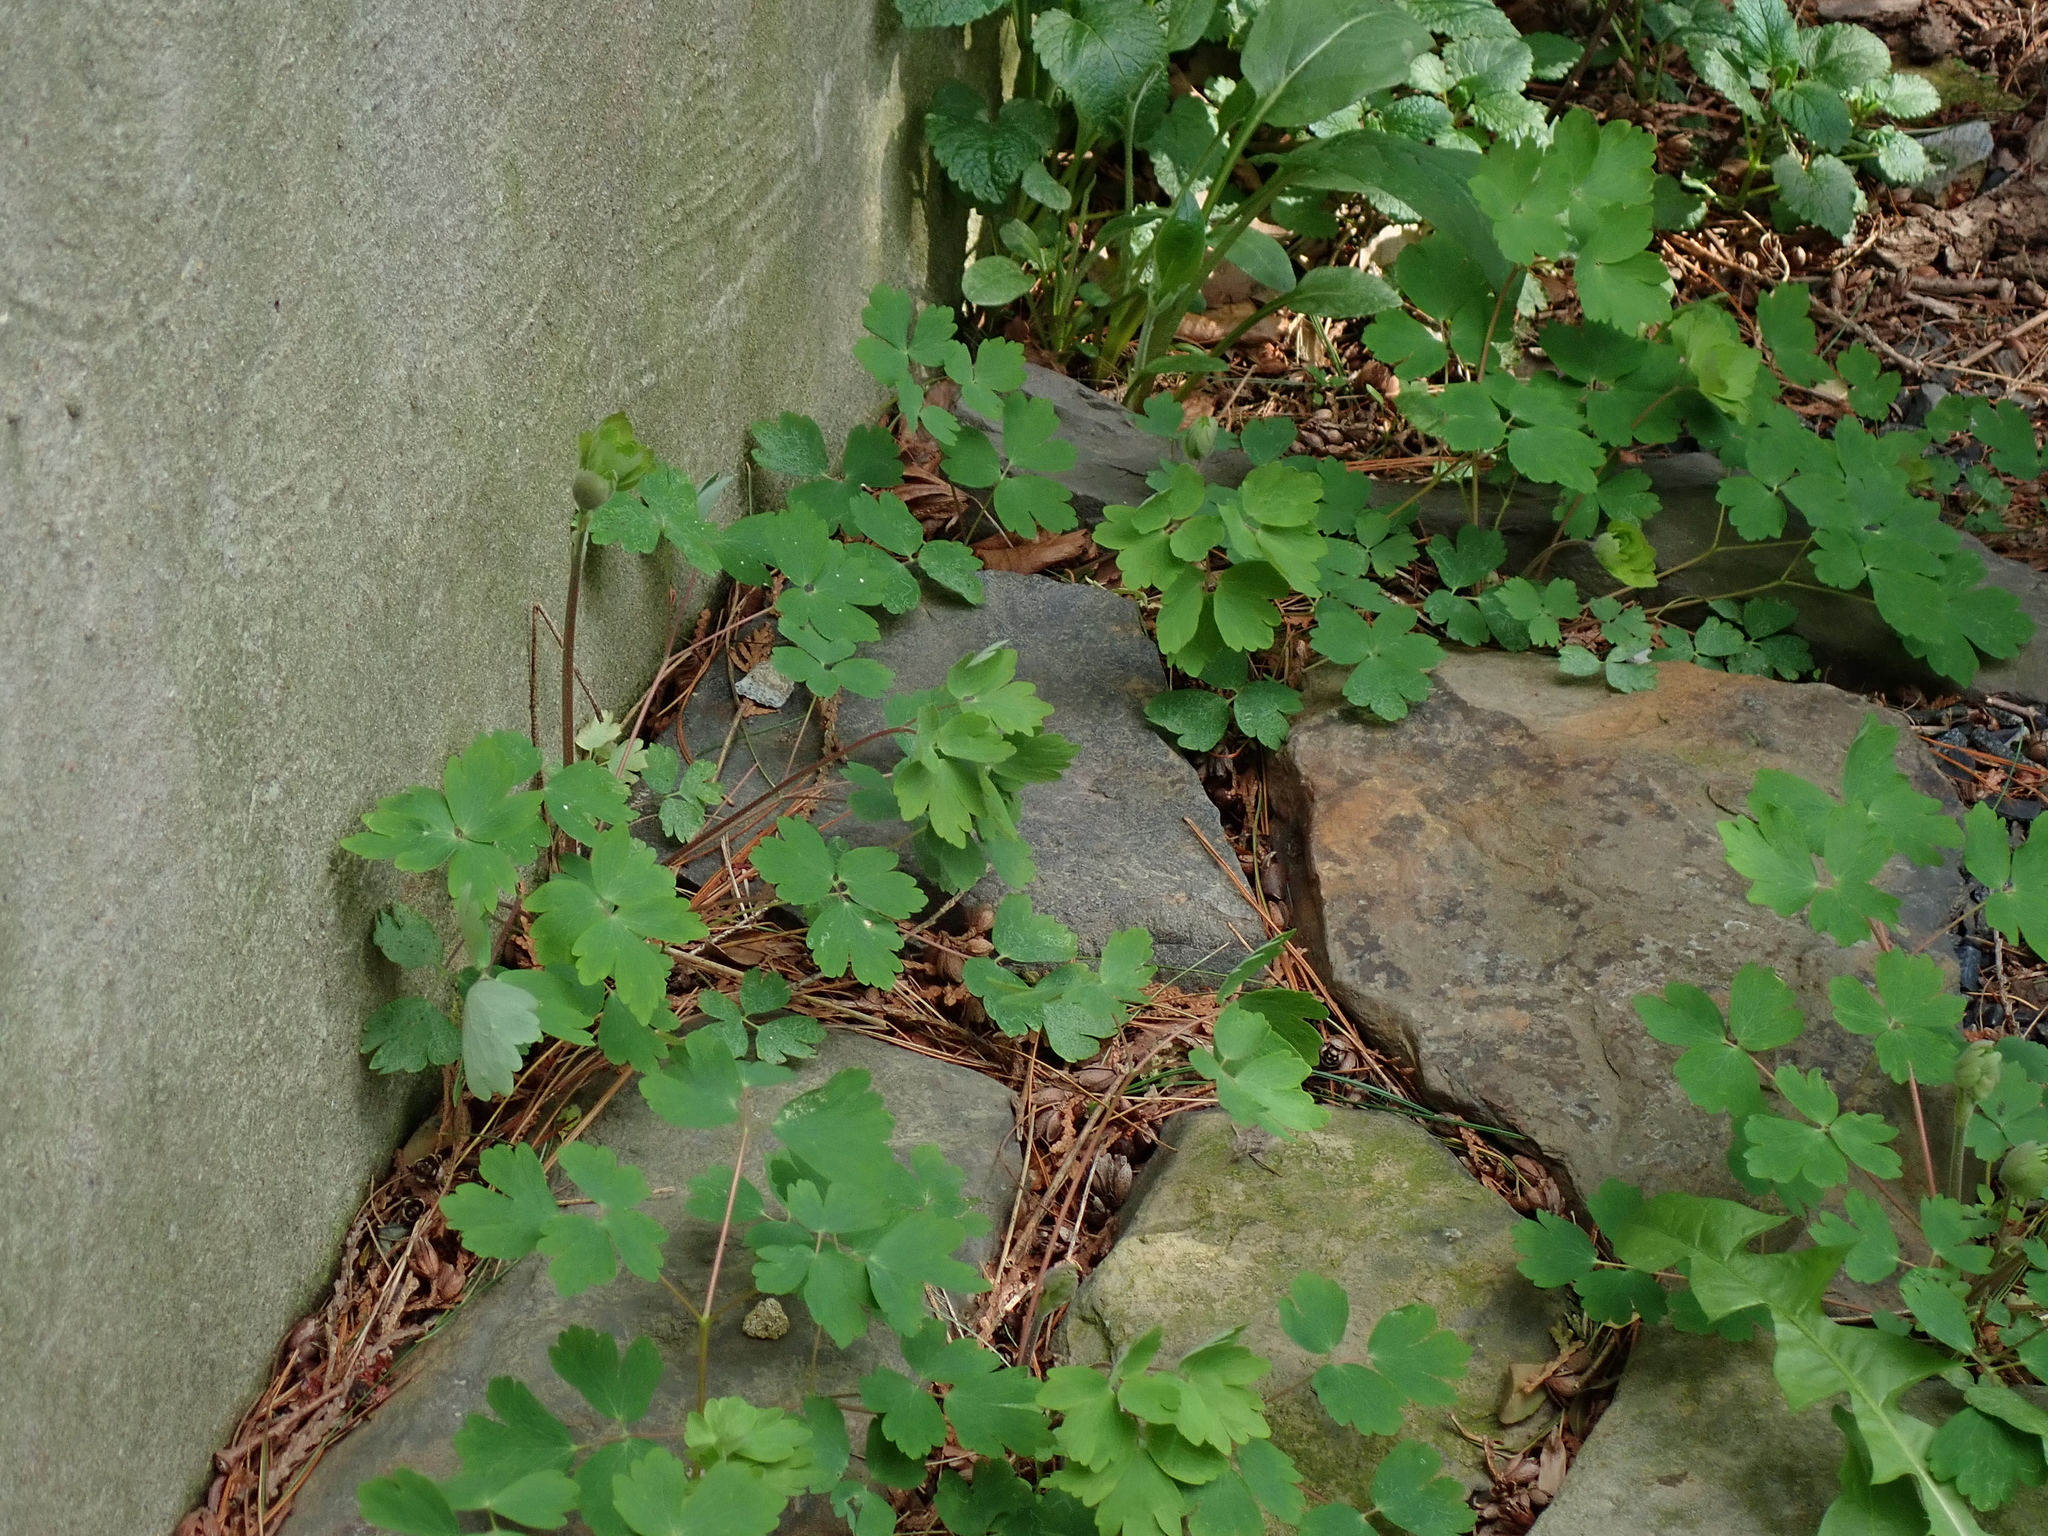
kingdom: Plantae
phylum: Tracheophyta
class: Magnoliopsida
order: Ranunculales
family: Ranunculaceae
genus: Aquilegia
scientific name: Aquilegia canadensis
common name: American columbine
